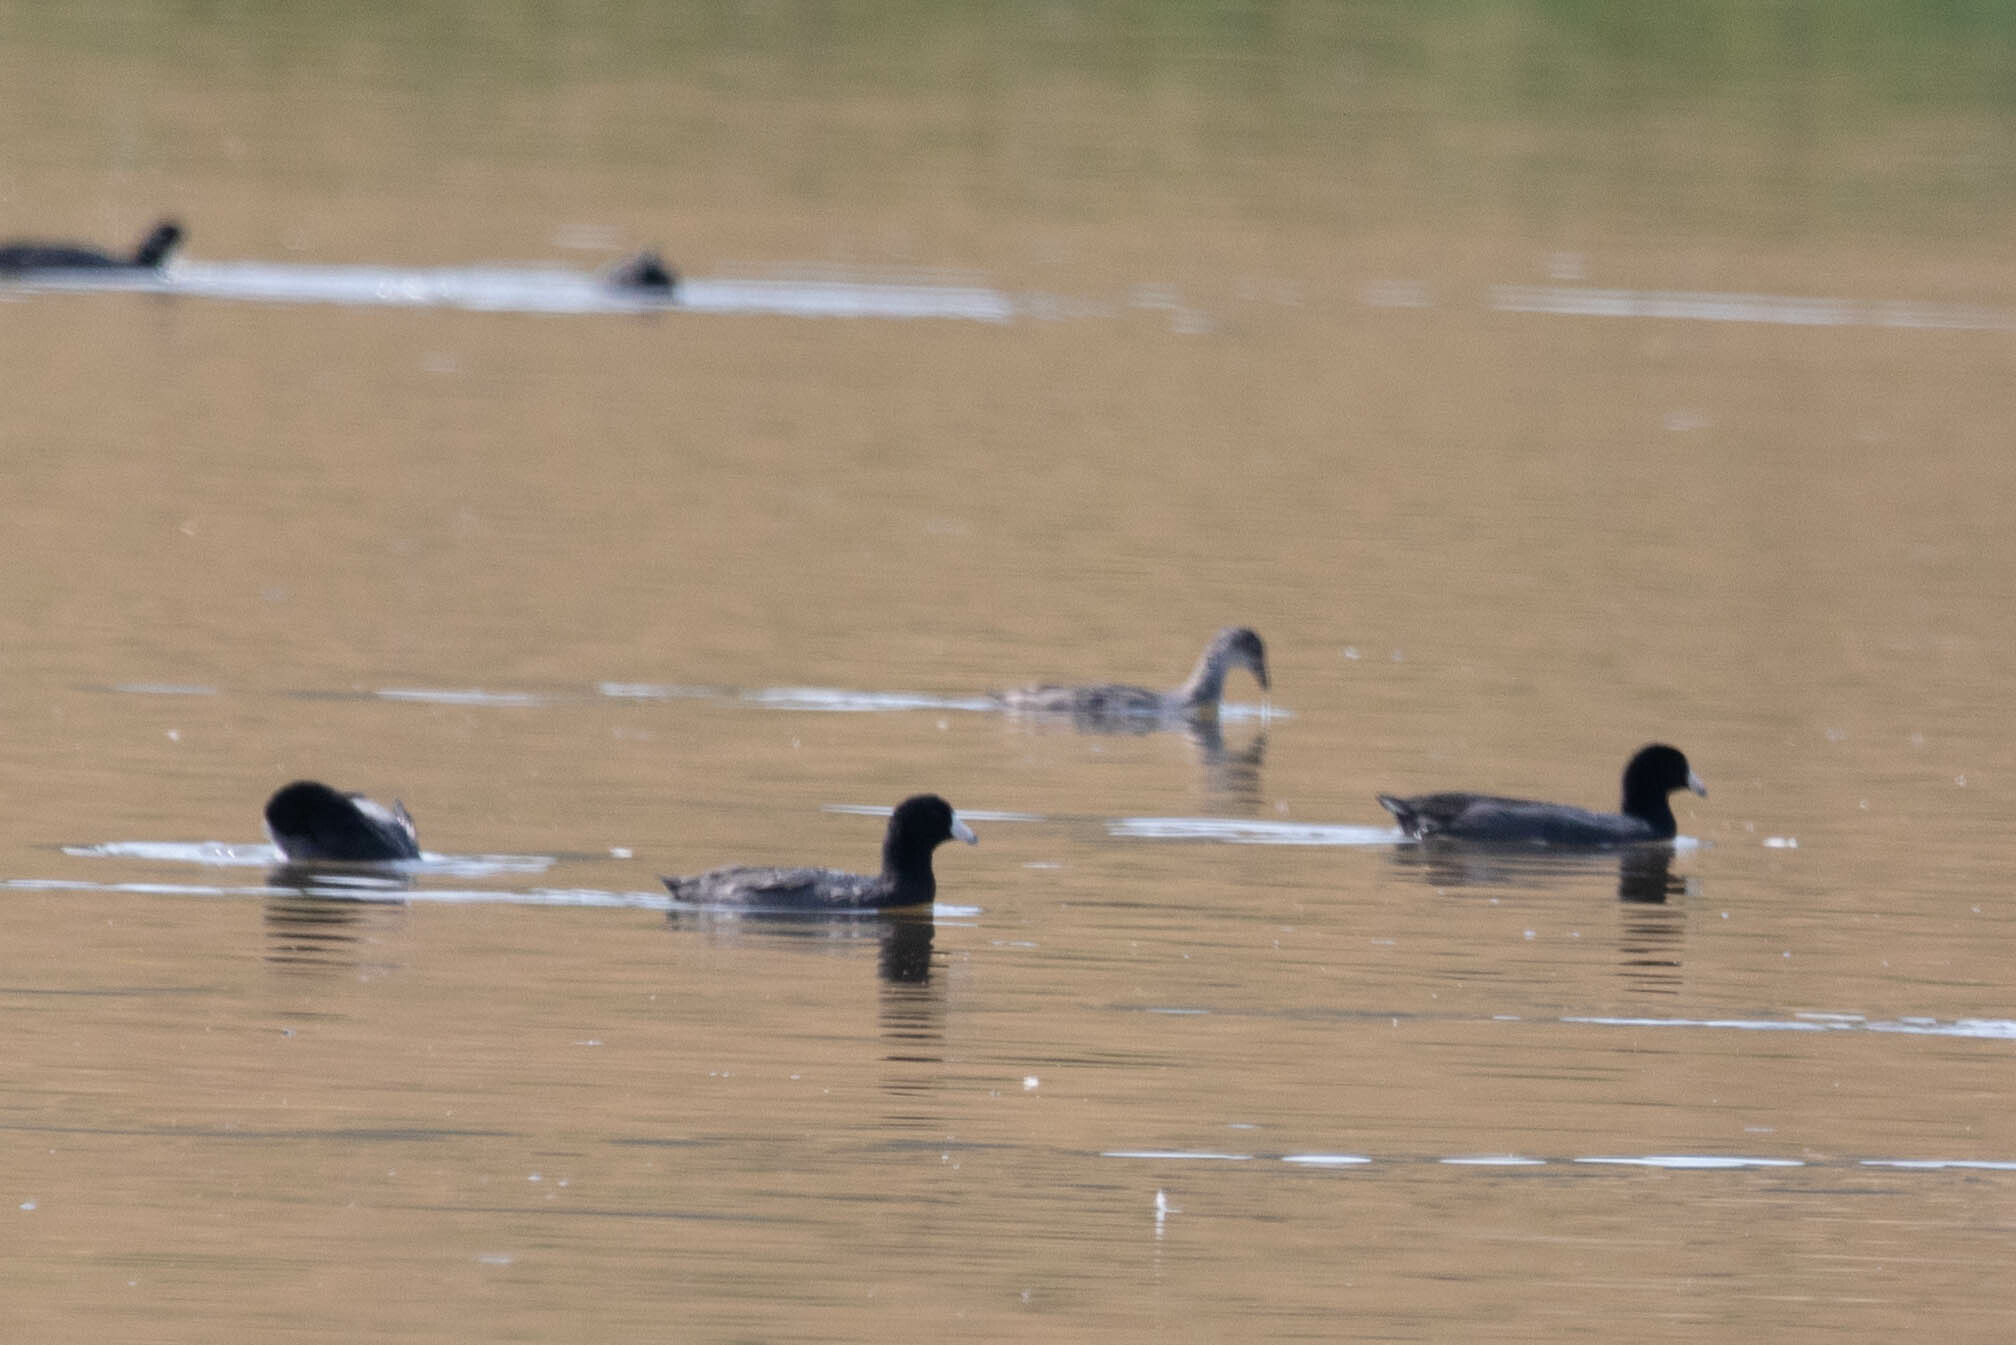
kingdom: Animalia
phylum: Chordata
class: Aves
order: Gruiformes
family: Rallidae
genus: Fulica
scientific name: Fulica americana
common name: American coot
